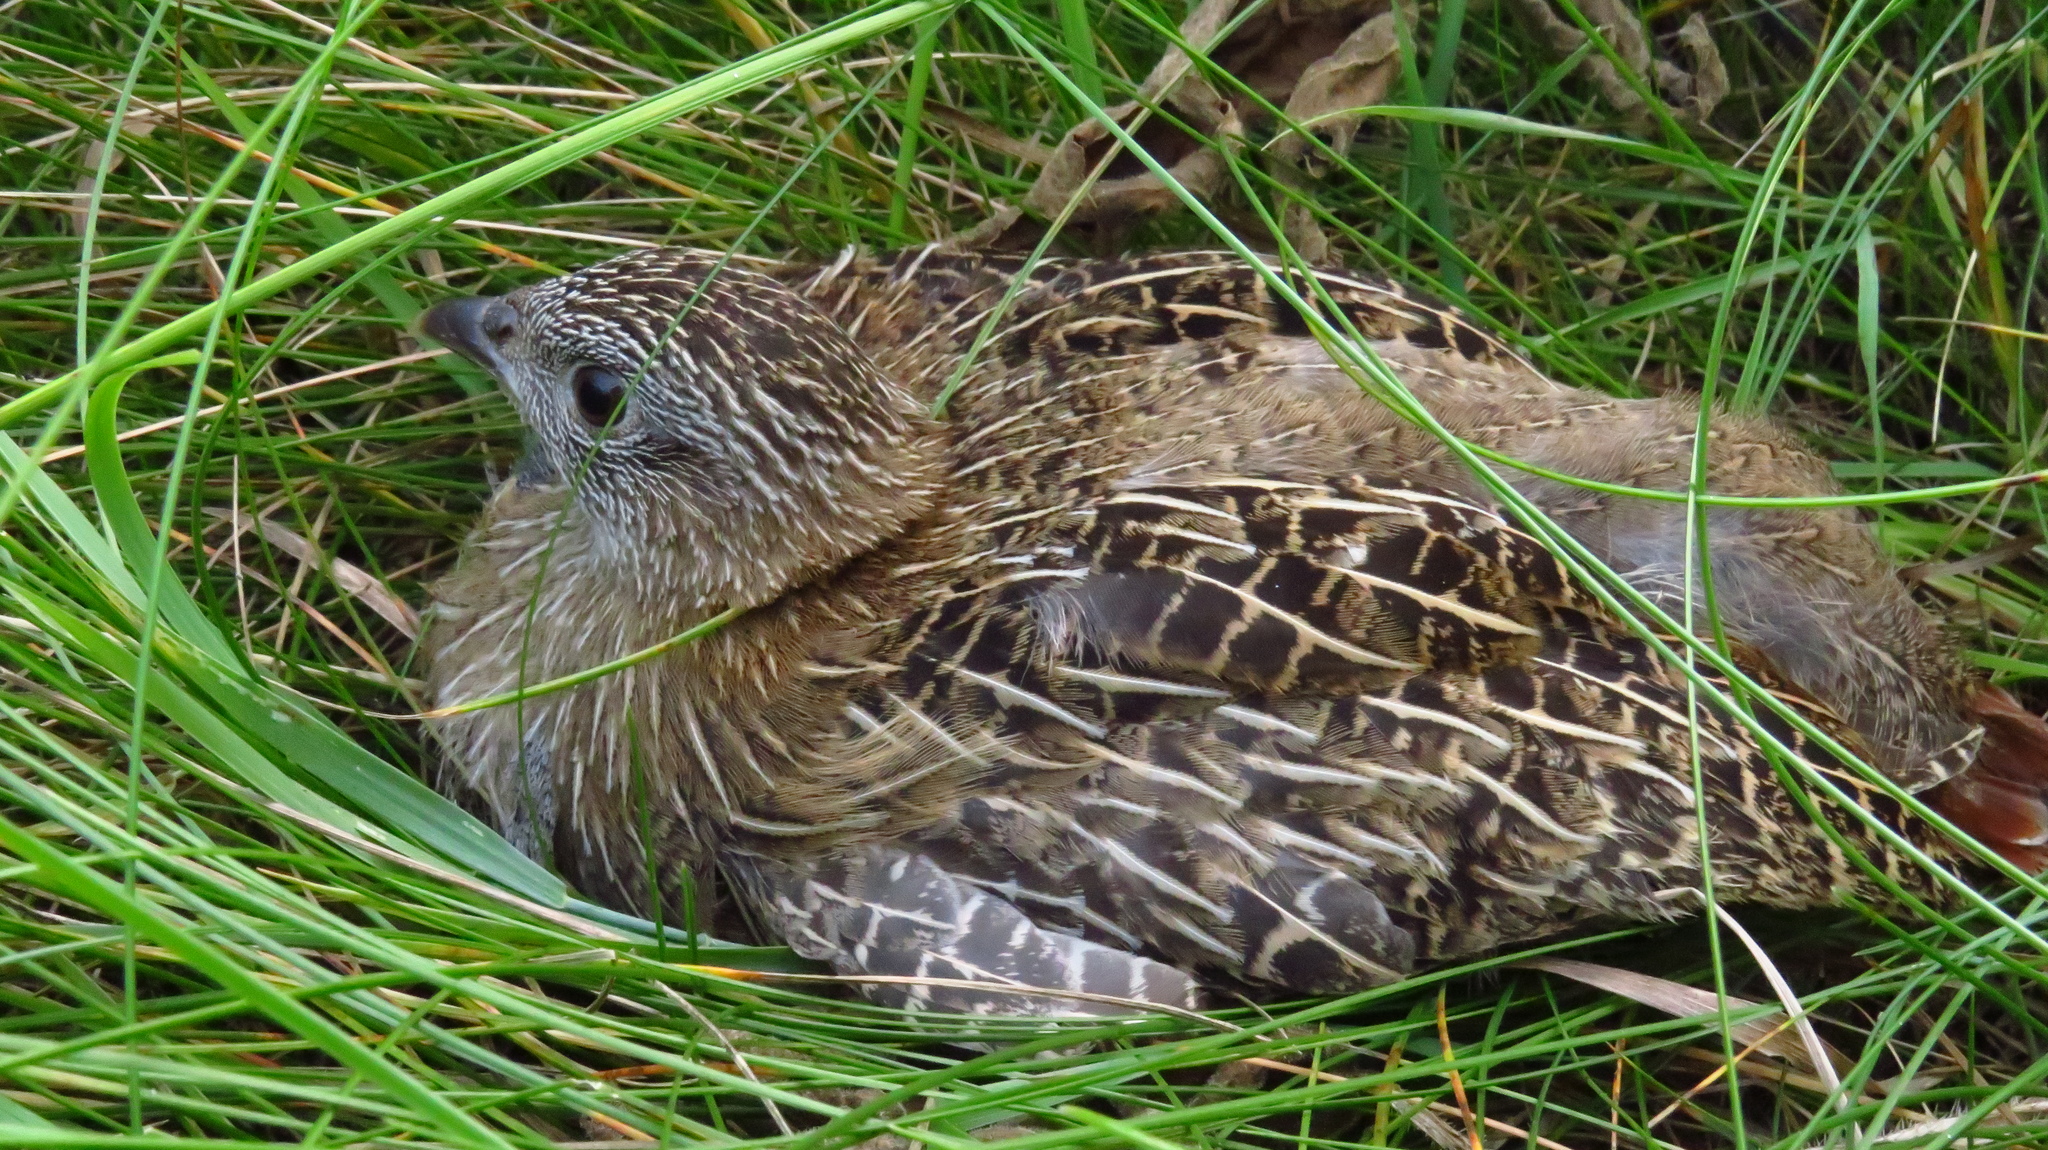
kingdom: Animalia
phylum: Chordata
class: Aves
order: Galliformes
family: Phasianidae
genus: Perdix
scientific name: Perdix perdix
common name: Grey partridge
